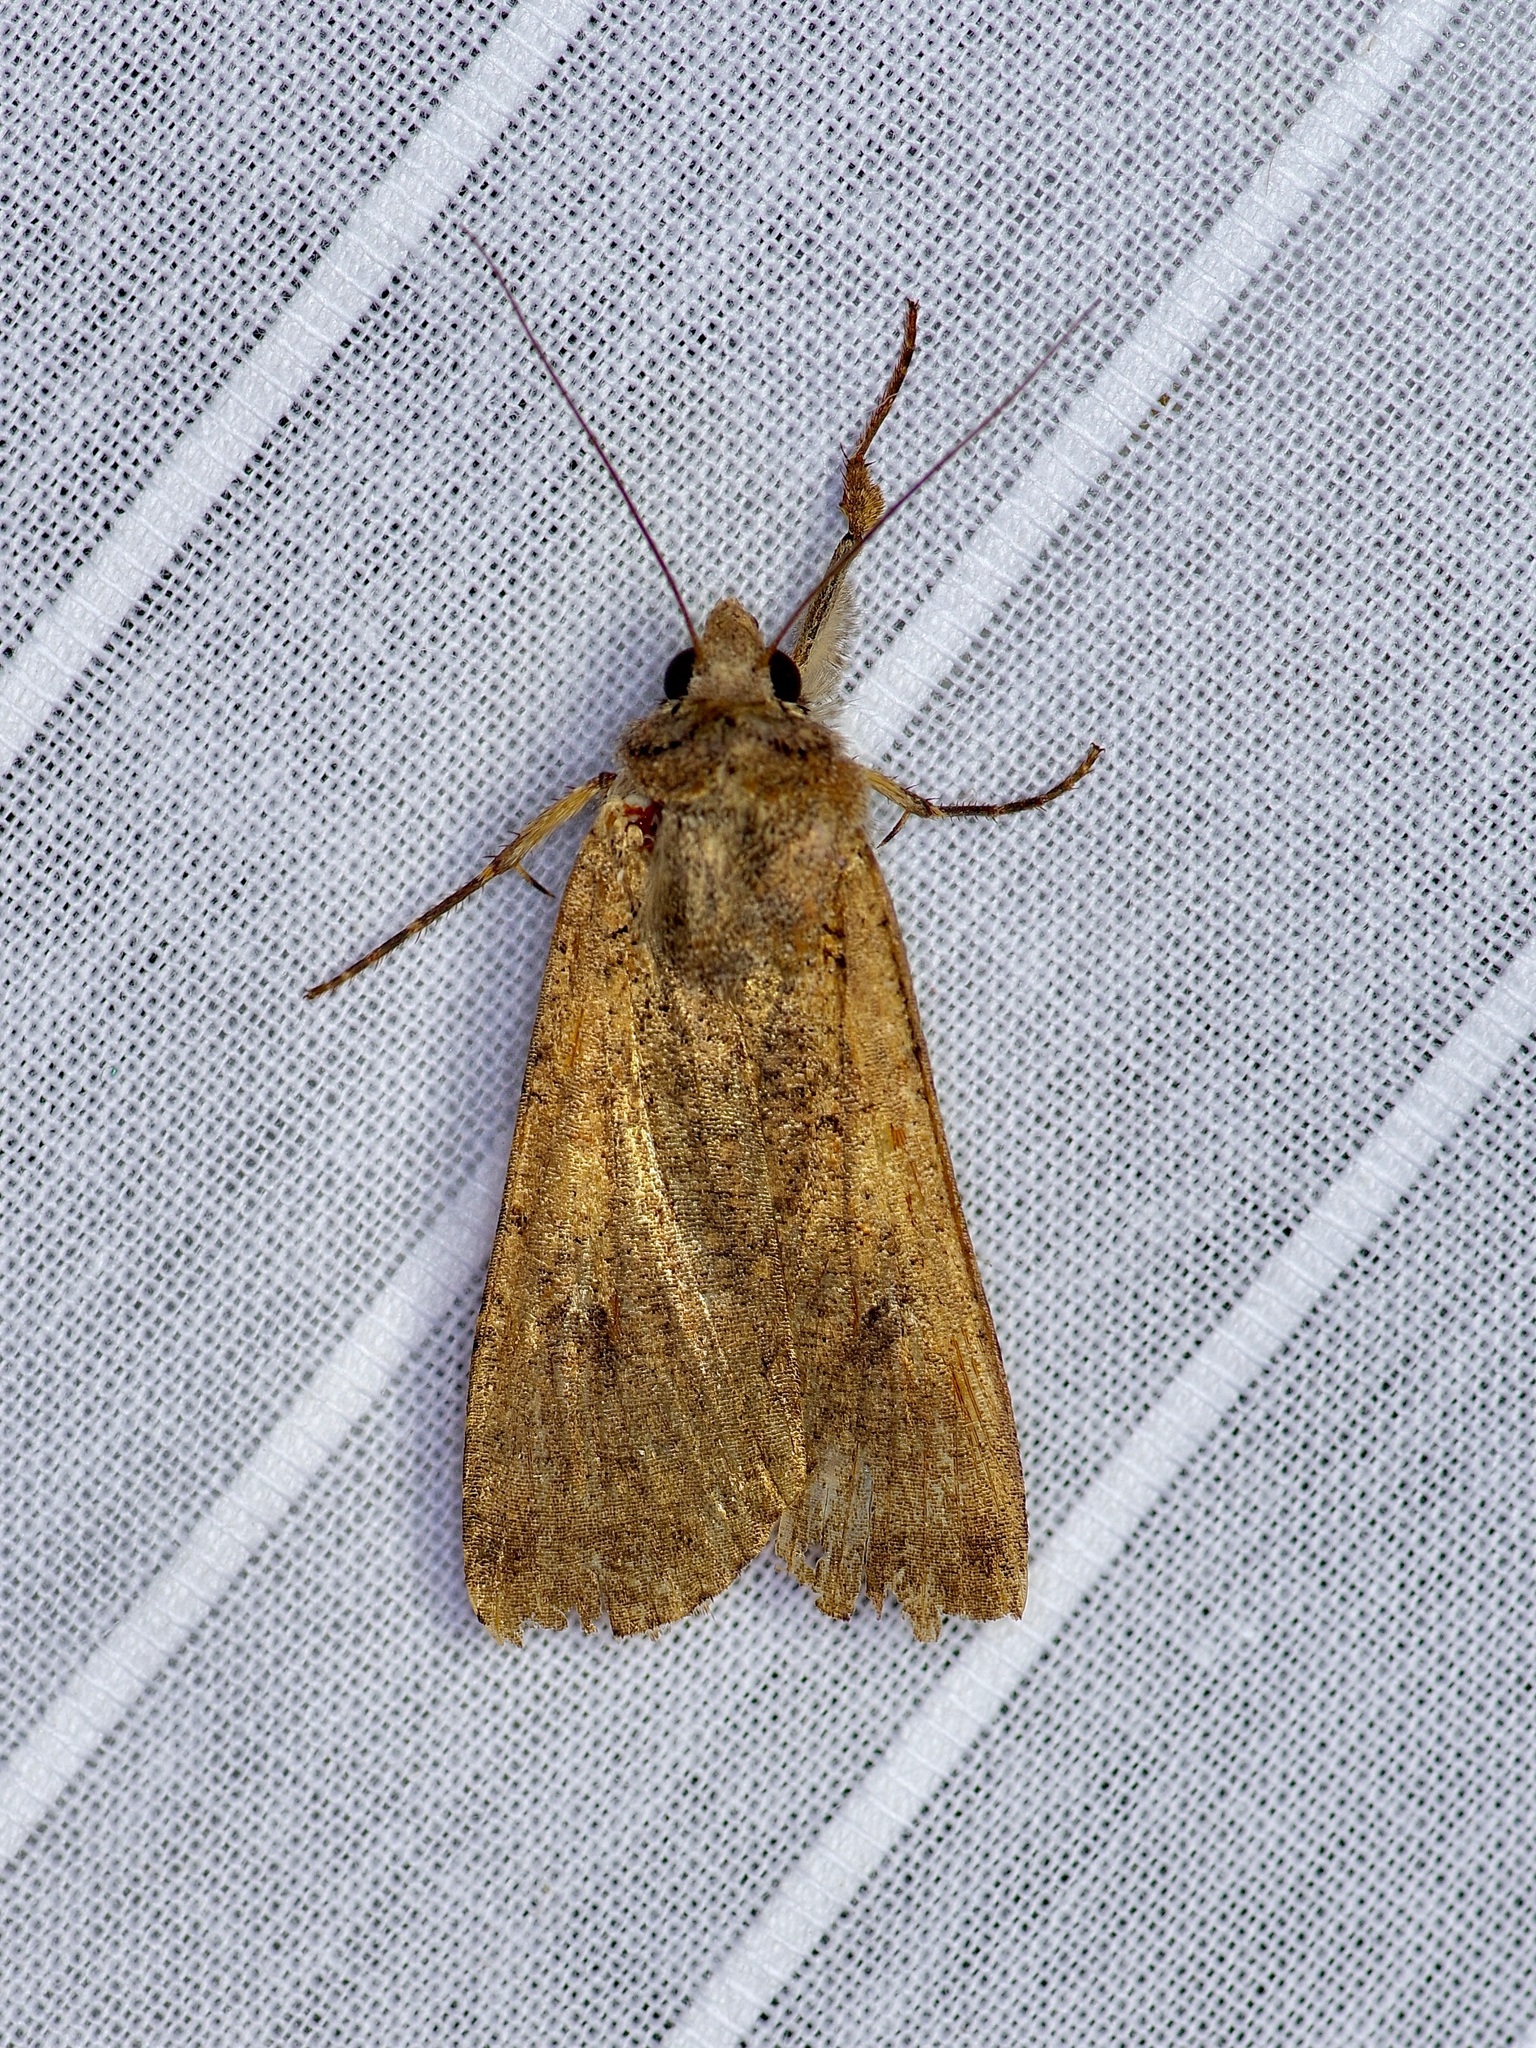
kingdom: Animalia
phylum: Arthropoda
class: Insecta
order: Lepidoptera
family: Noctuidae
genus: Peridroma
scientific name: Peridroma saucia
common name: Pearly underwing
